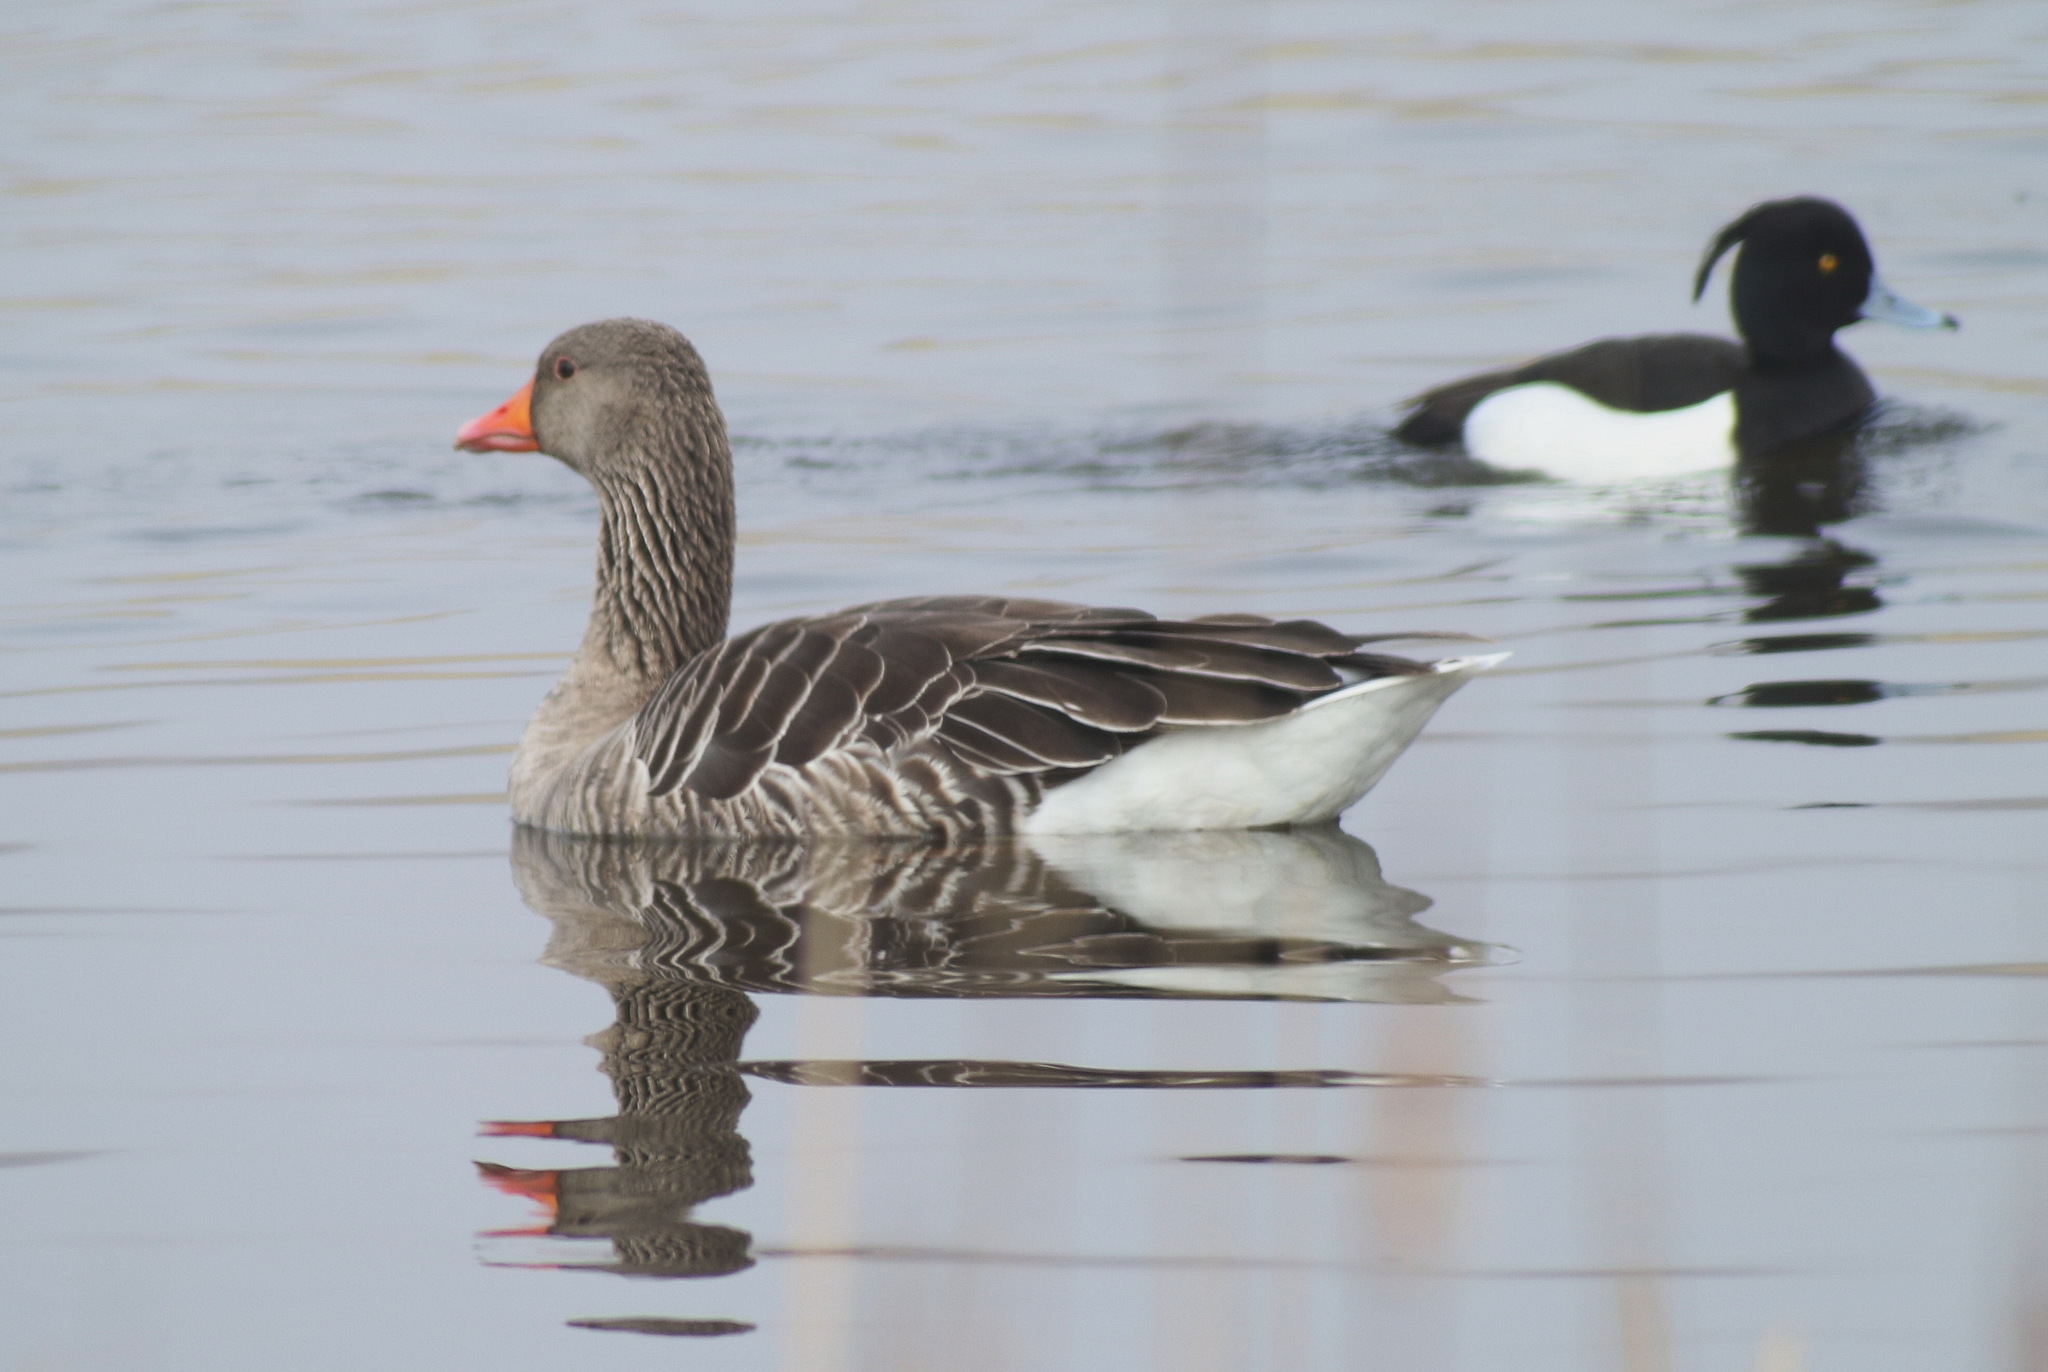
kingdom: Animalia
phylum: Chordata
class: Aves
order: Anseriformes
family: Anatidae
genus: Aythya
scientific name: Aythya fuligula
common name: Tufted duck
